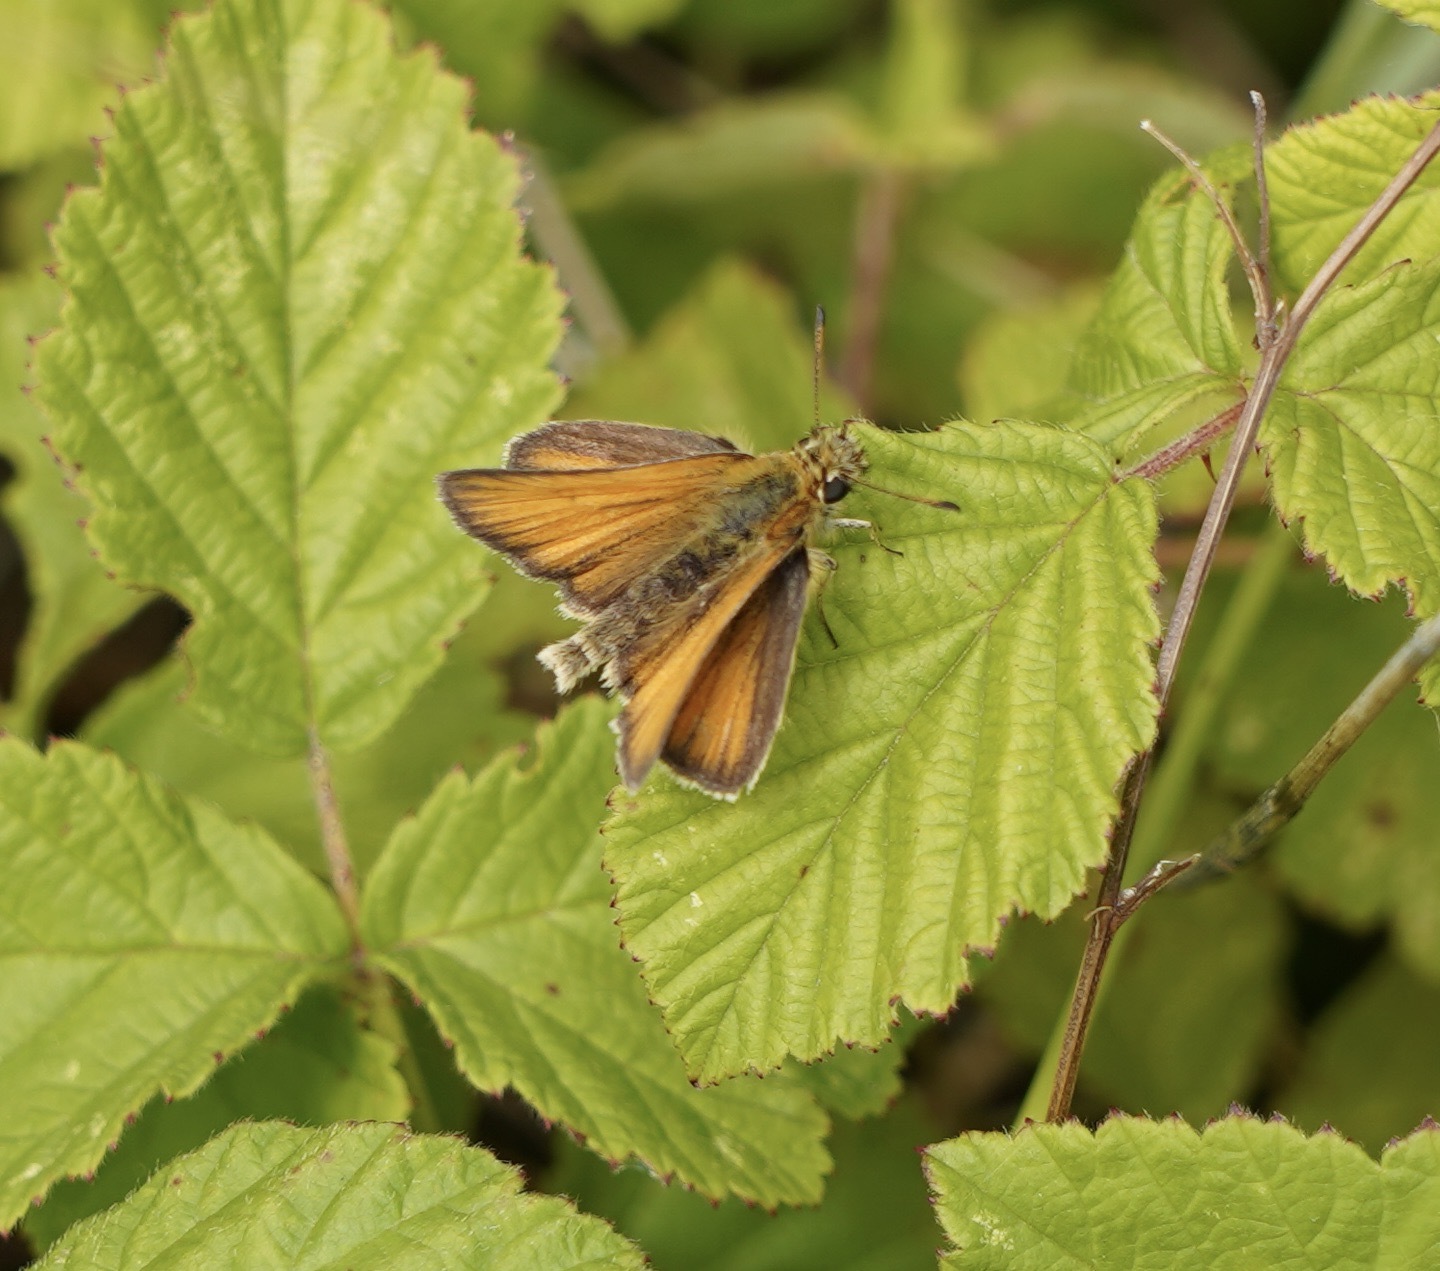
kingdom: Animalia
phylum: Arthropoda
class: Insecta
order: Lepidoptera
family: Hesperiidae
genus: Thymelicus
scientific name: Thymelicus lineola
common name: Essex skipper
